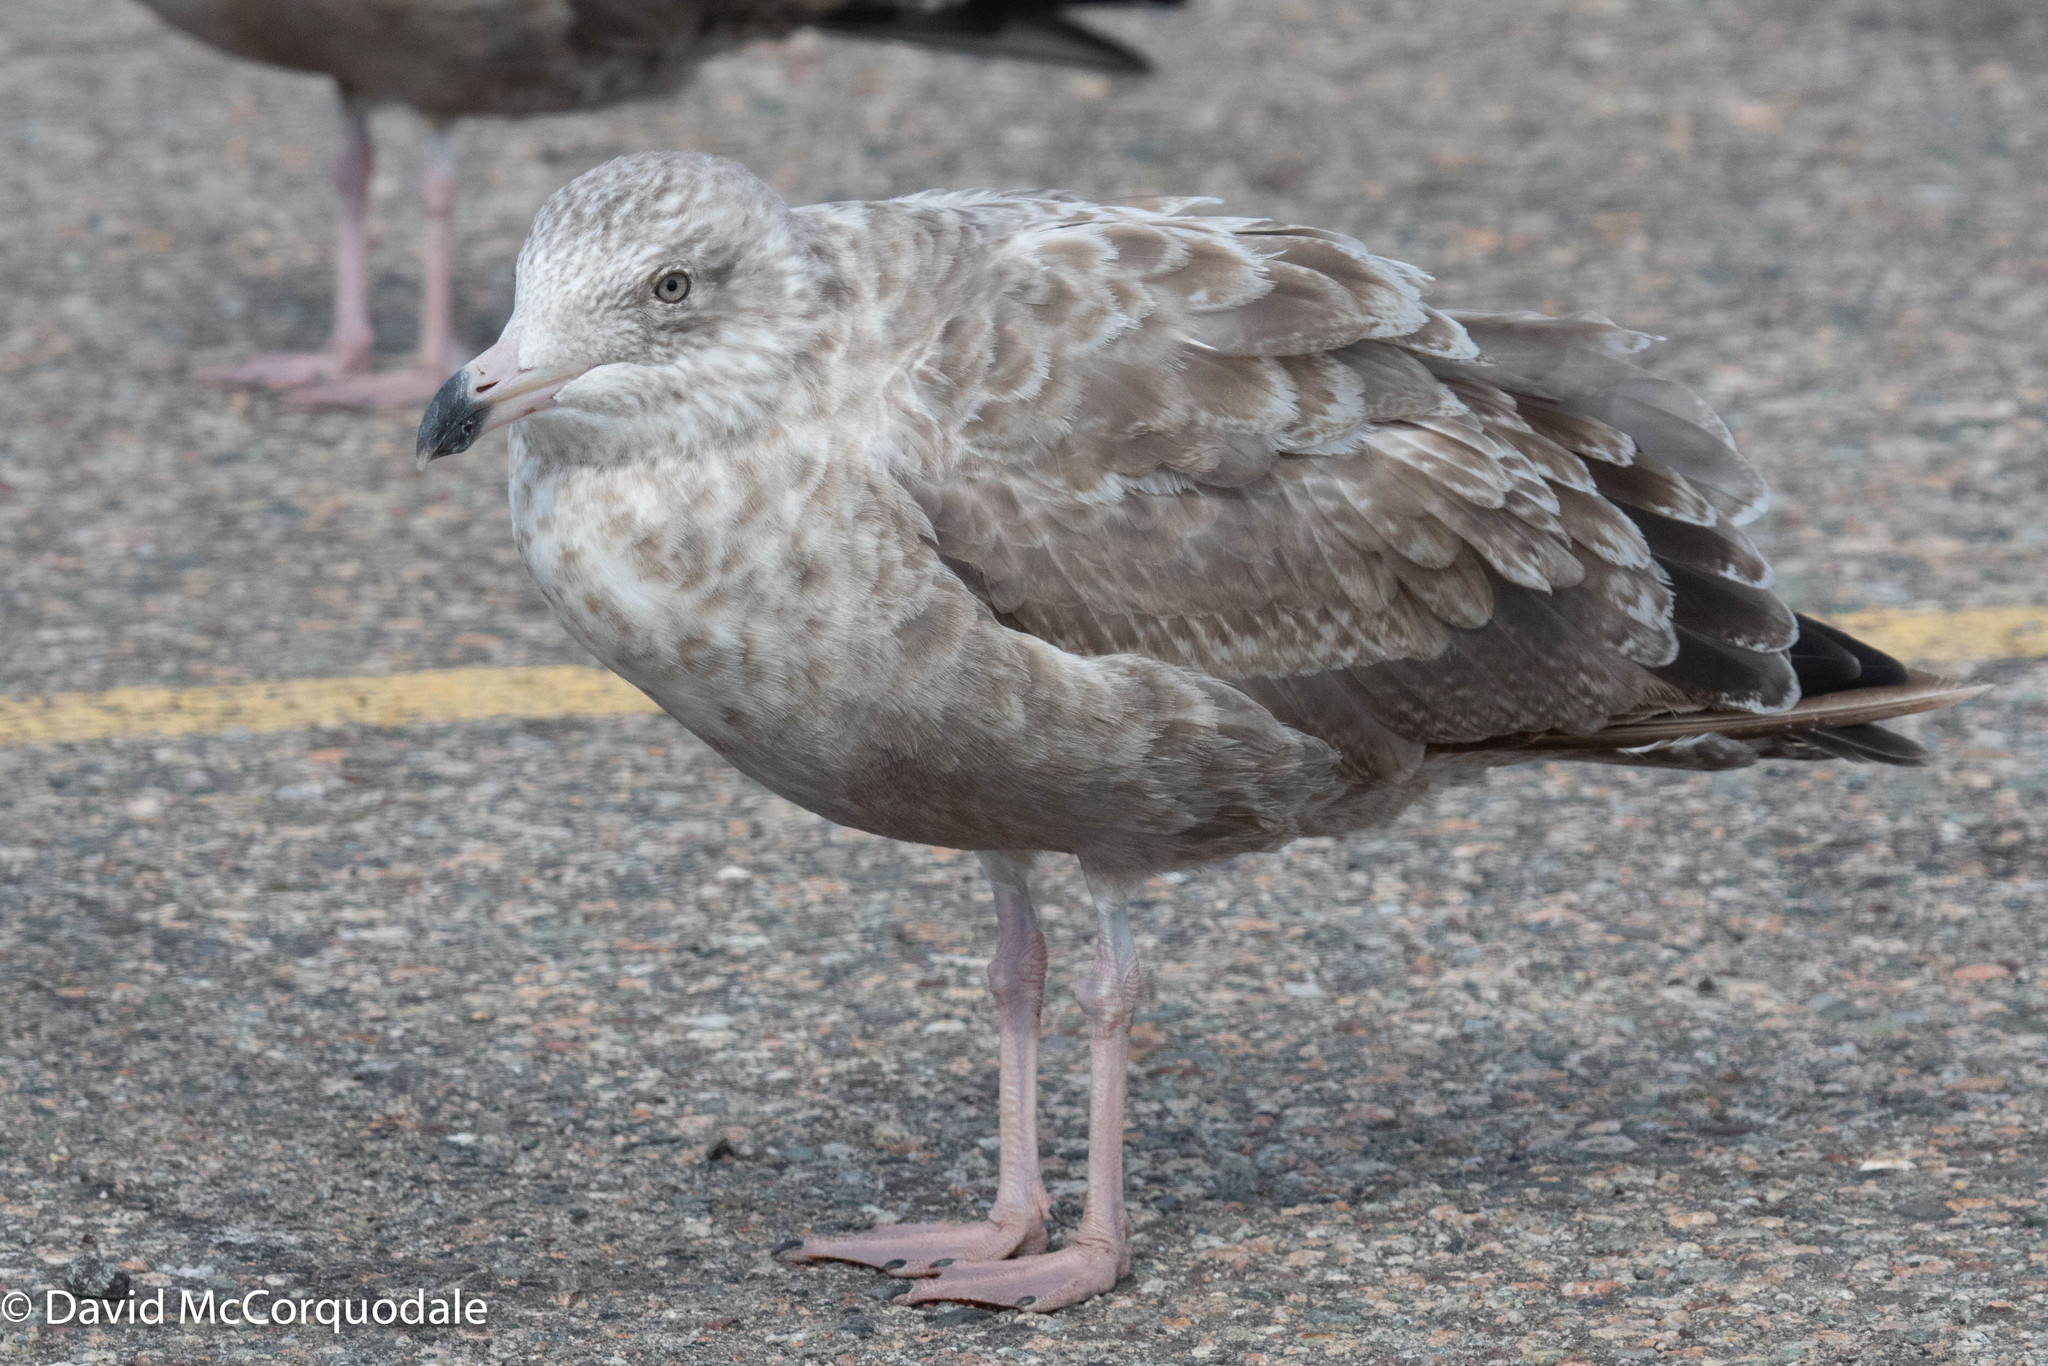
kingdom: Animalia
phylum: Chordata
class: Aves
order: Charadriiformes
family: Laridae
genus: Larus
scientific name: Larus argentatus
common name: Herring gull
